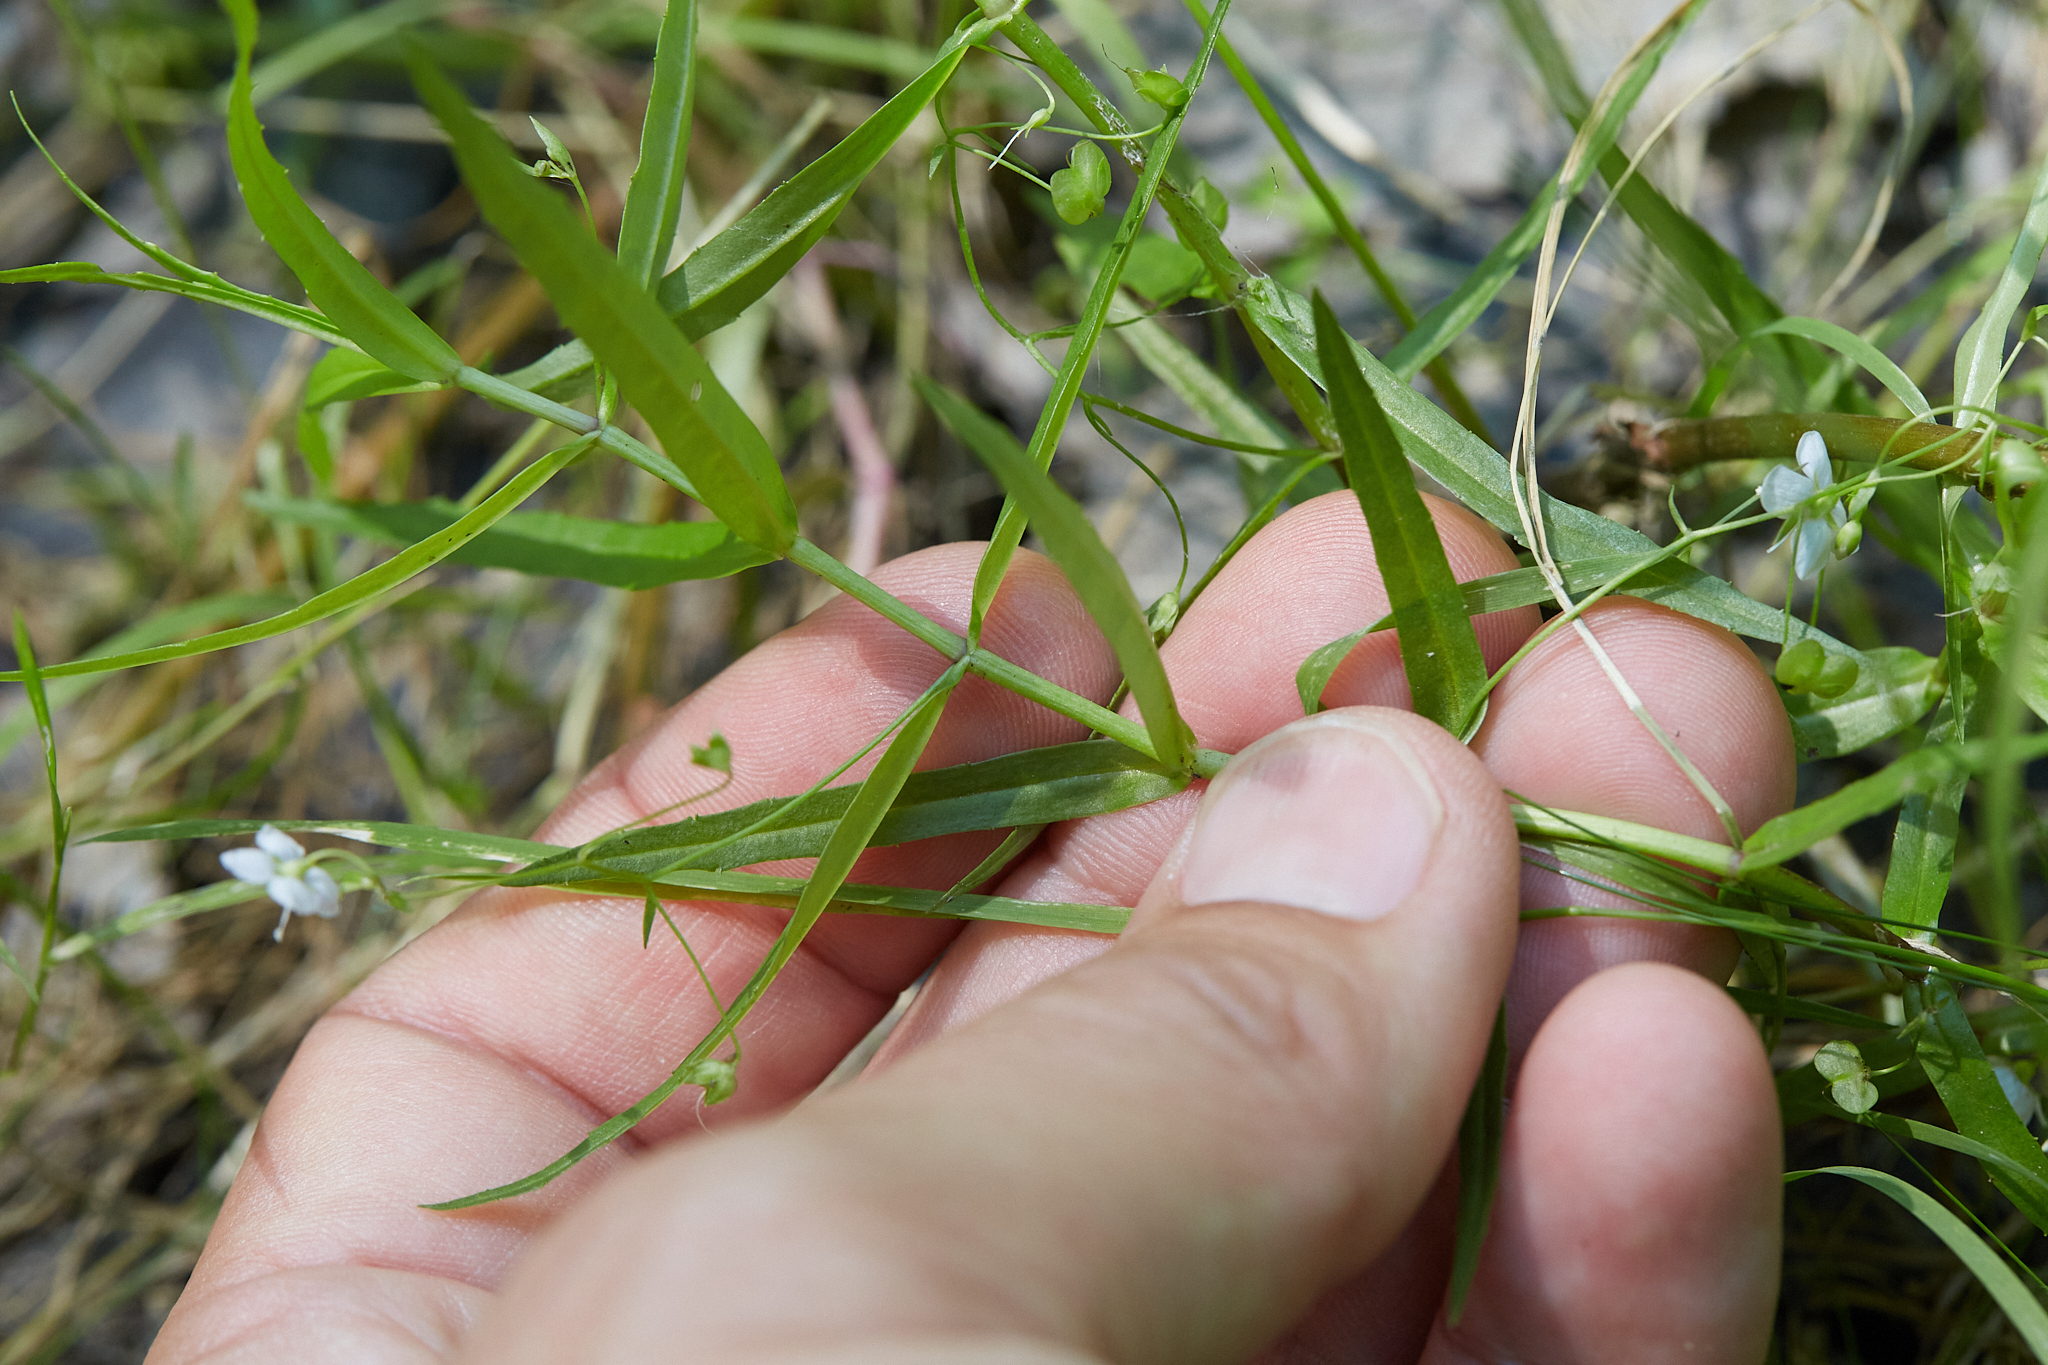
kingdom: Plantae
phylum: Tracheophyta
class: Magnoliopsida
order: Lamiales
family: Plantaginaceae
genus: Veronica
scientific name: Veronica scutellata
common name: Marsh speedwell
